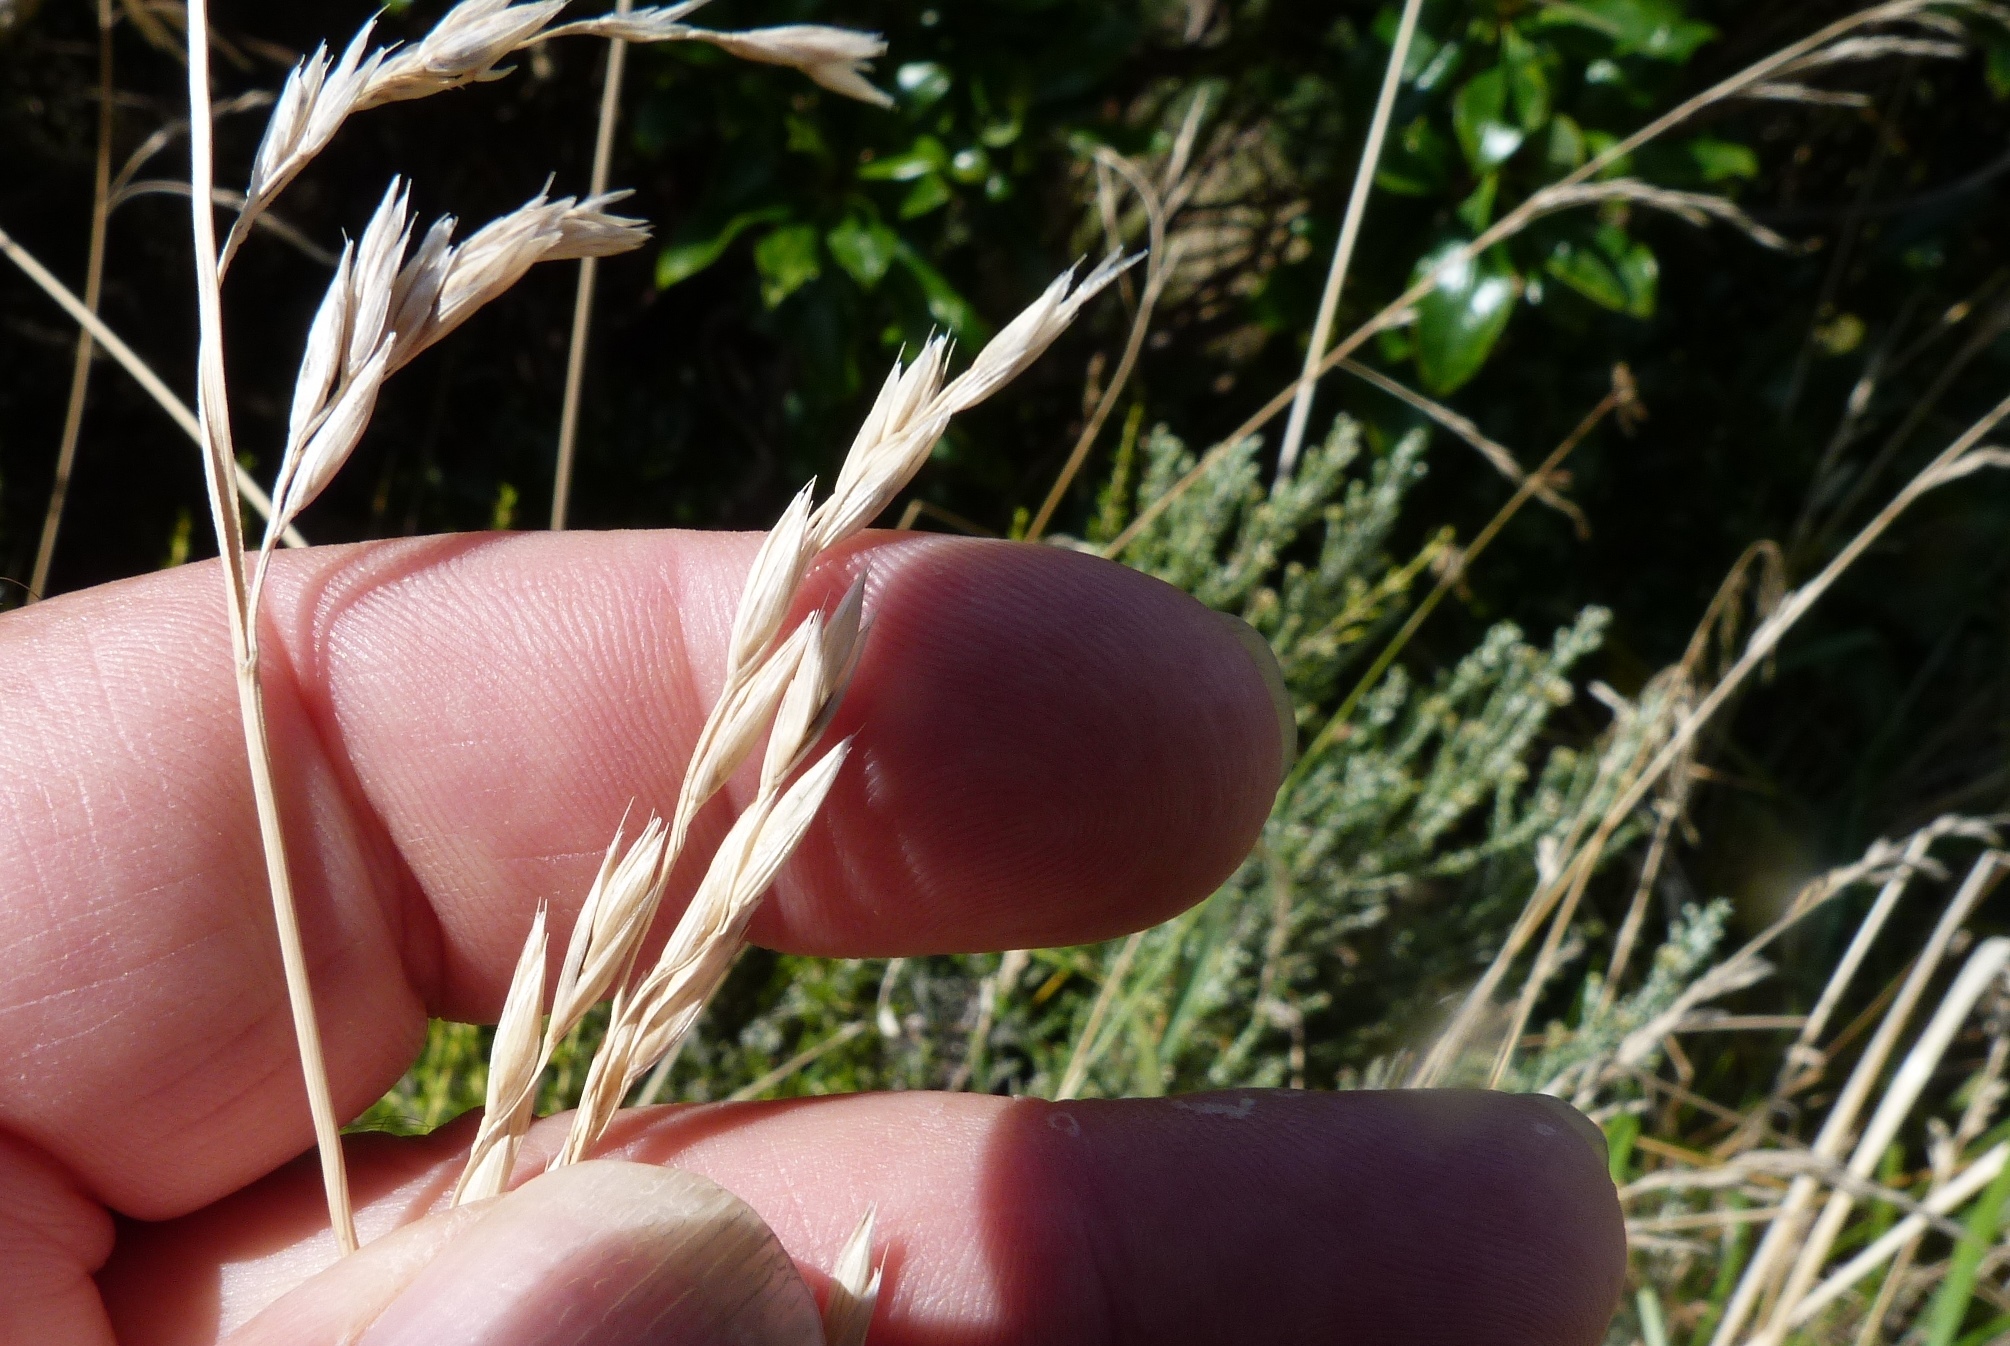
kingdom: Plantae
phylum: Tracheophyta
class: Liliopsida
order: Poales
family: Poaceae
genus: Lolium
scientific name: Lolium arundinaceum
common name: Reed fescue
